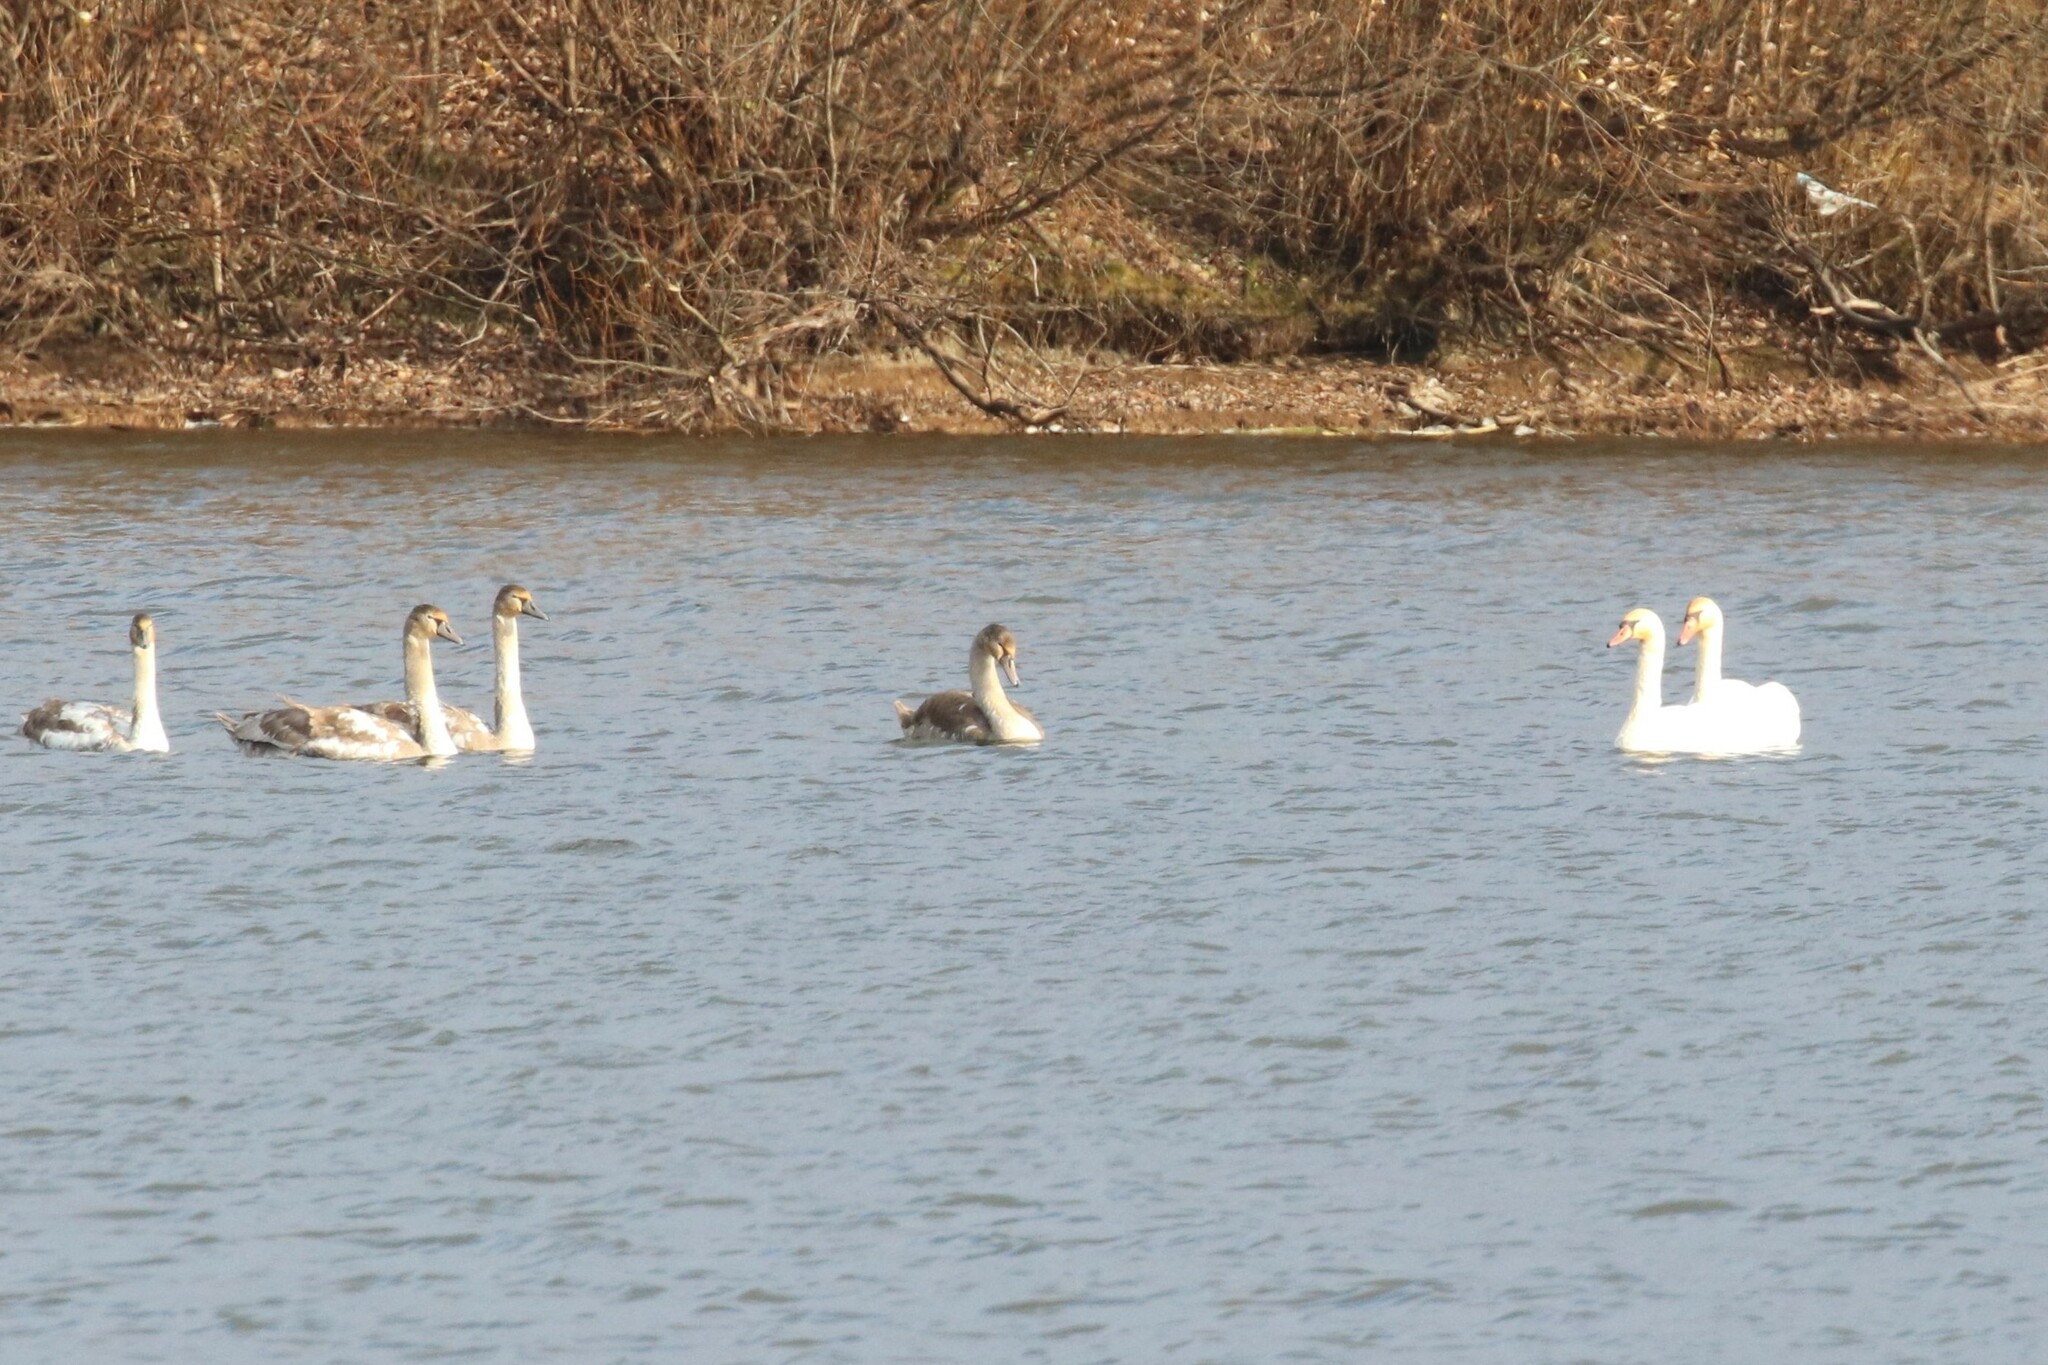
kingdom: Animalia
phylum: Chordata
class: Aves
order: Anseriformes
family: Anatidae
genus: Cygnus
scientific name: Cygnus olor
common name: Mute swan
